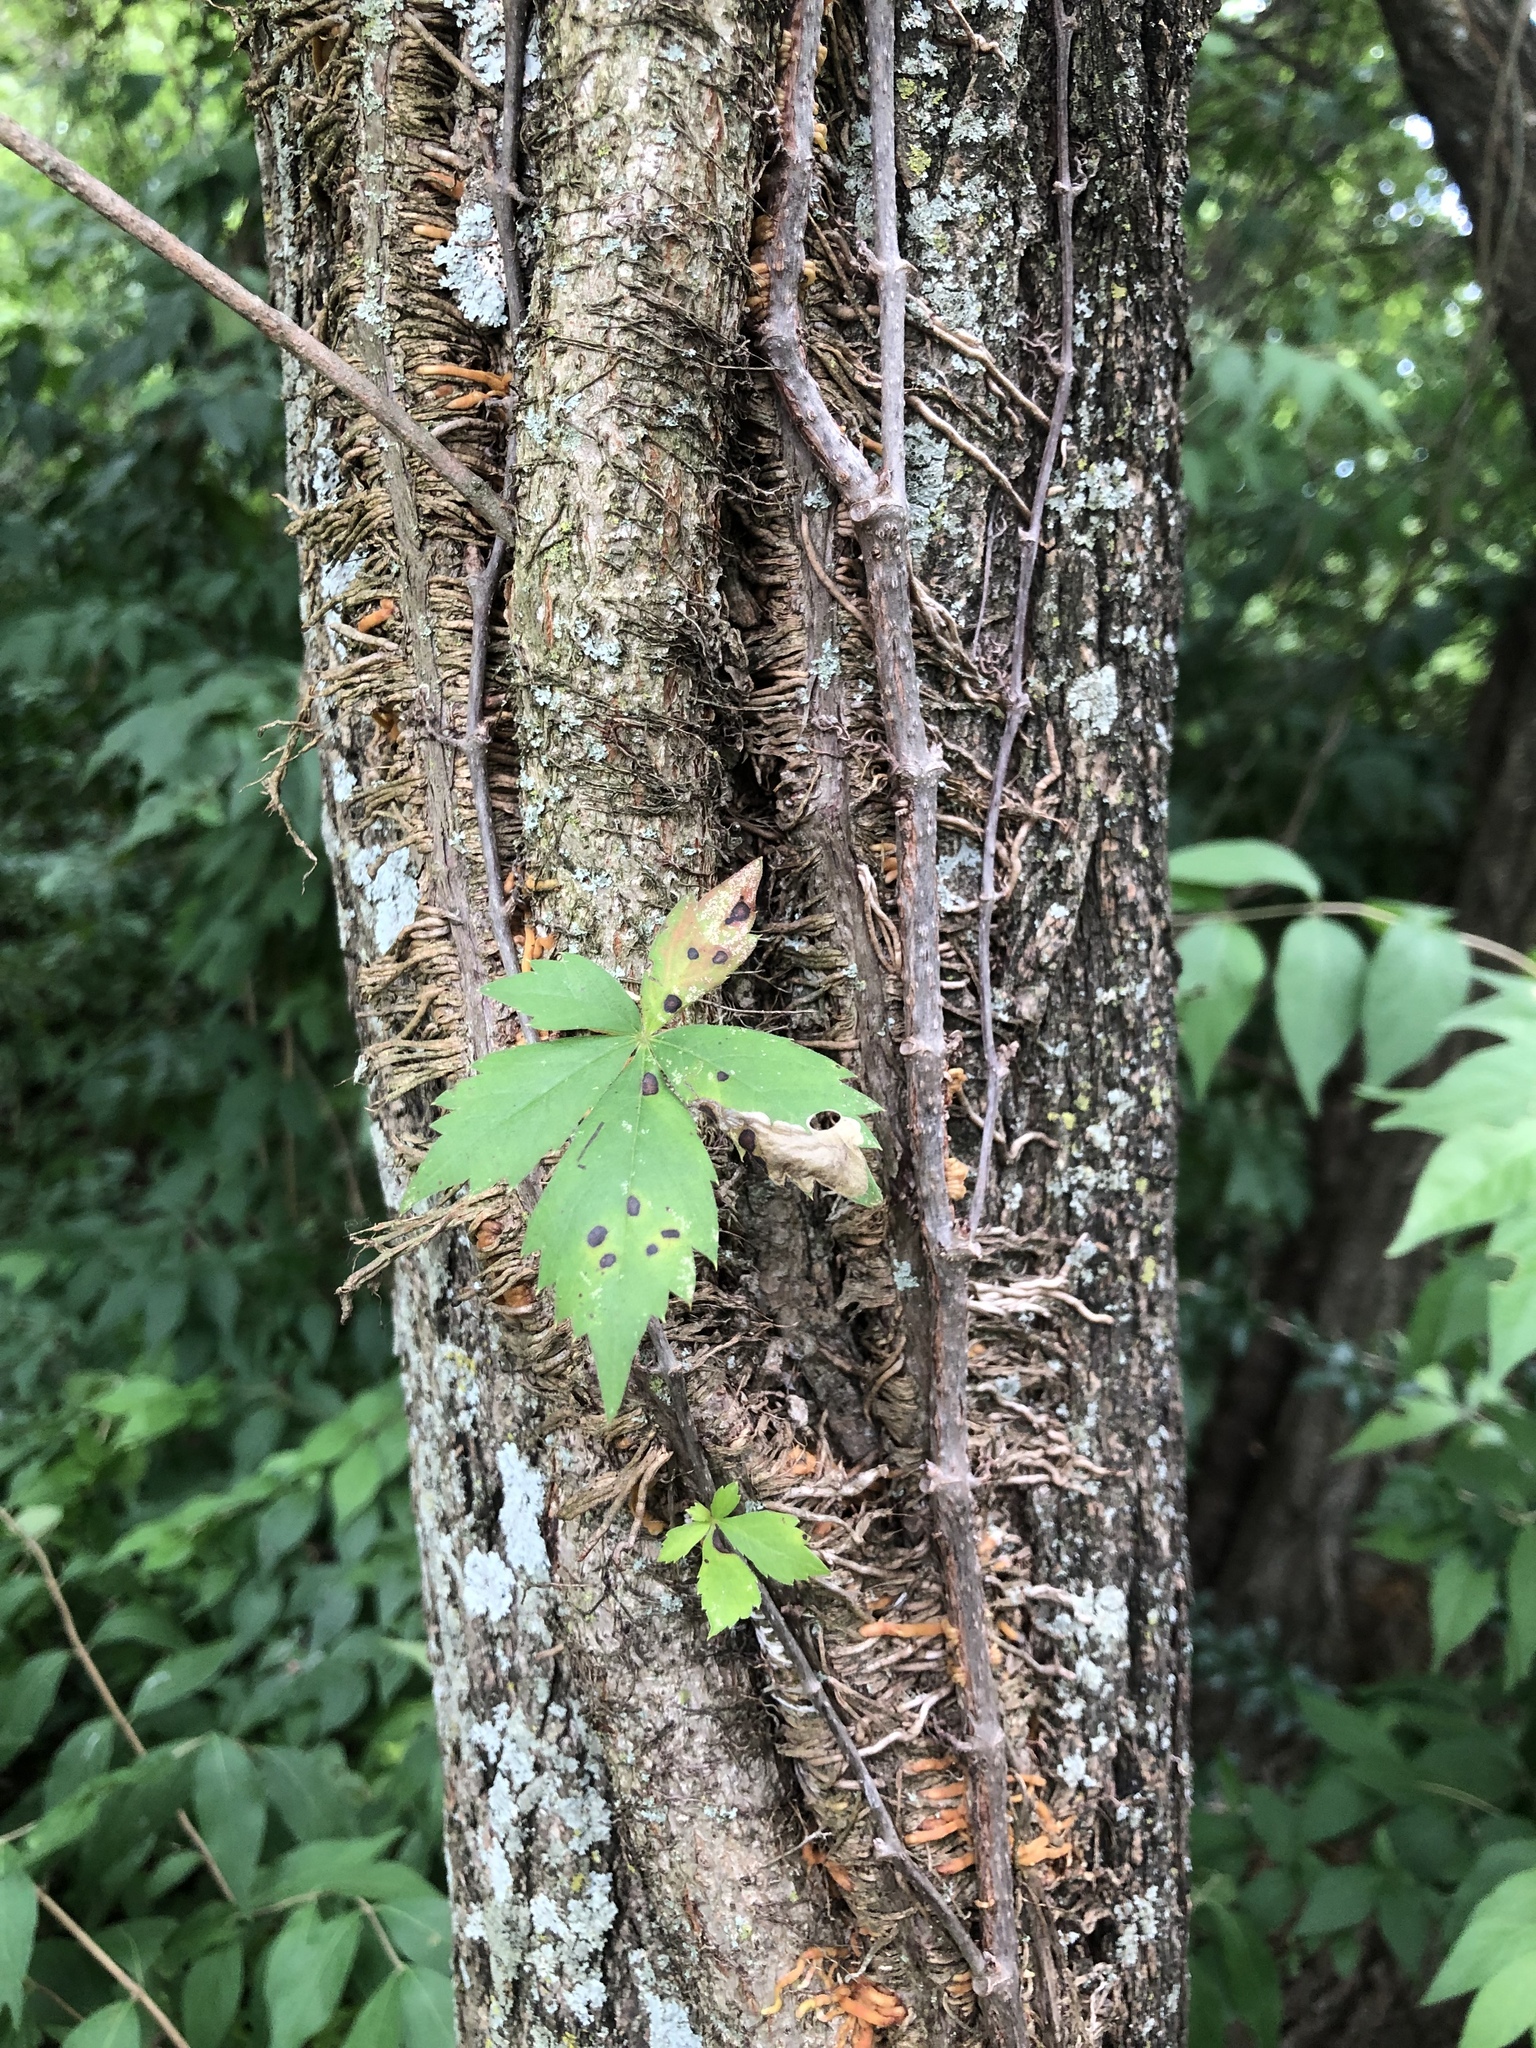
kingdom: Plantae
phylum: Tracheophyta
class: Magnoliopsida
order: Vitales
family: Vitaceae
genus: Parthenocissus
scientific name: Parthenocissus quinquefolia
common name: Virginia-creeper
